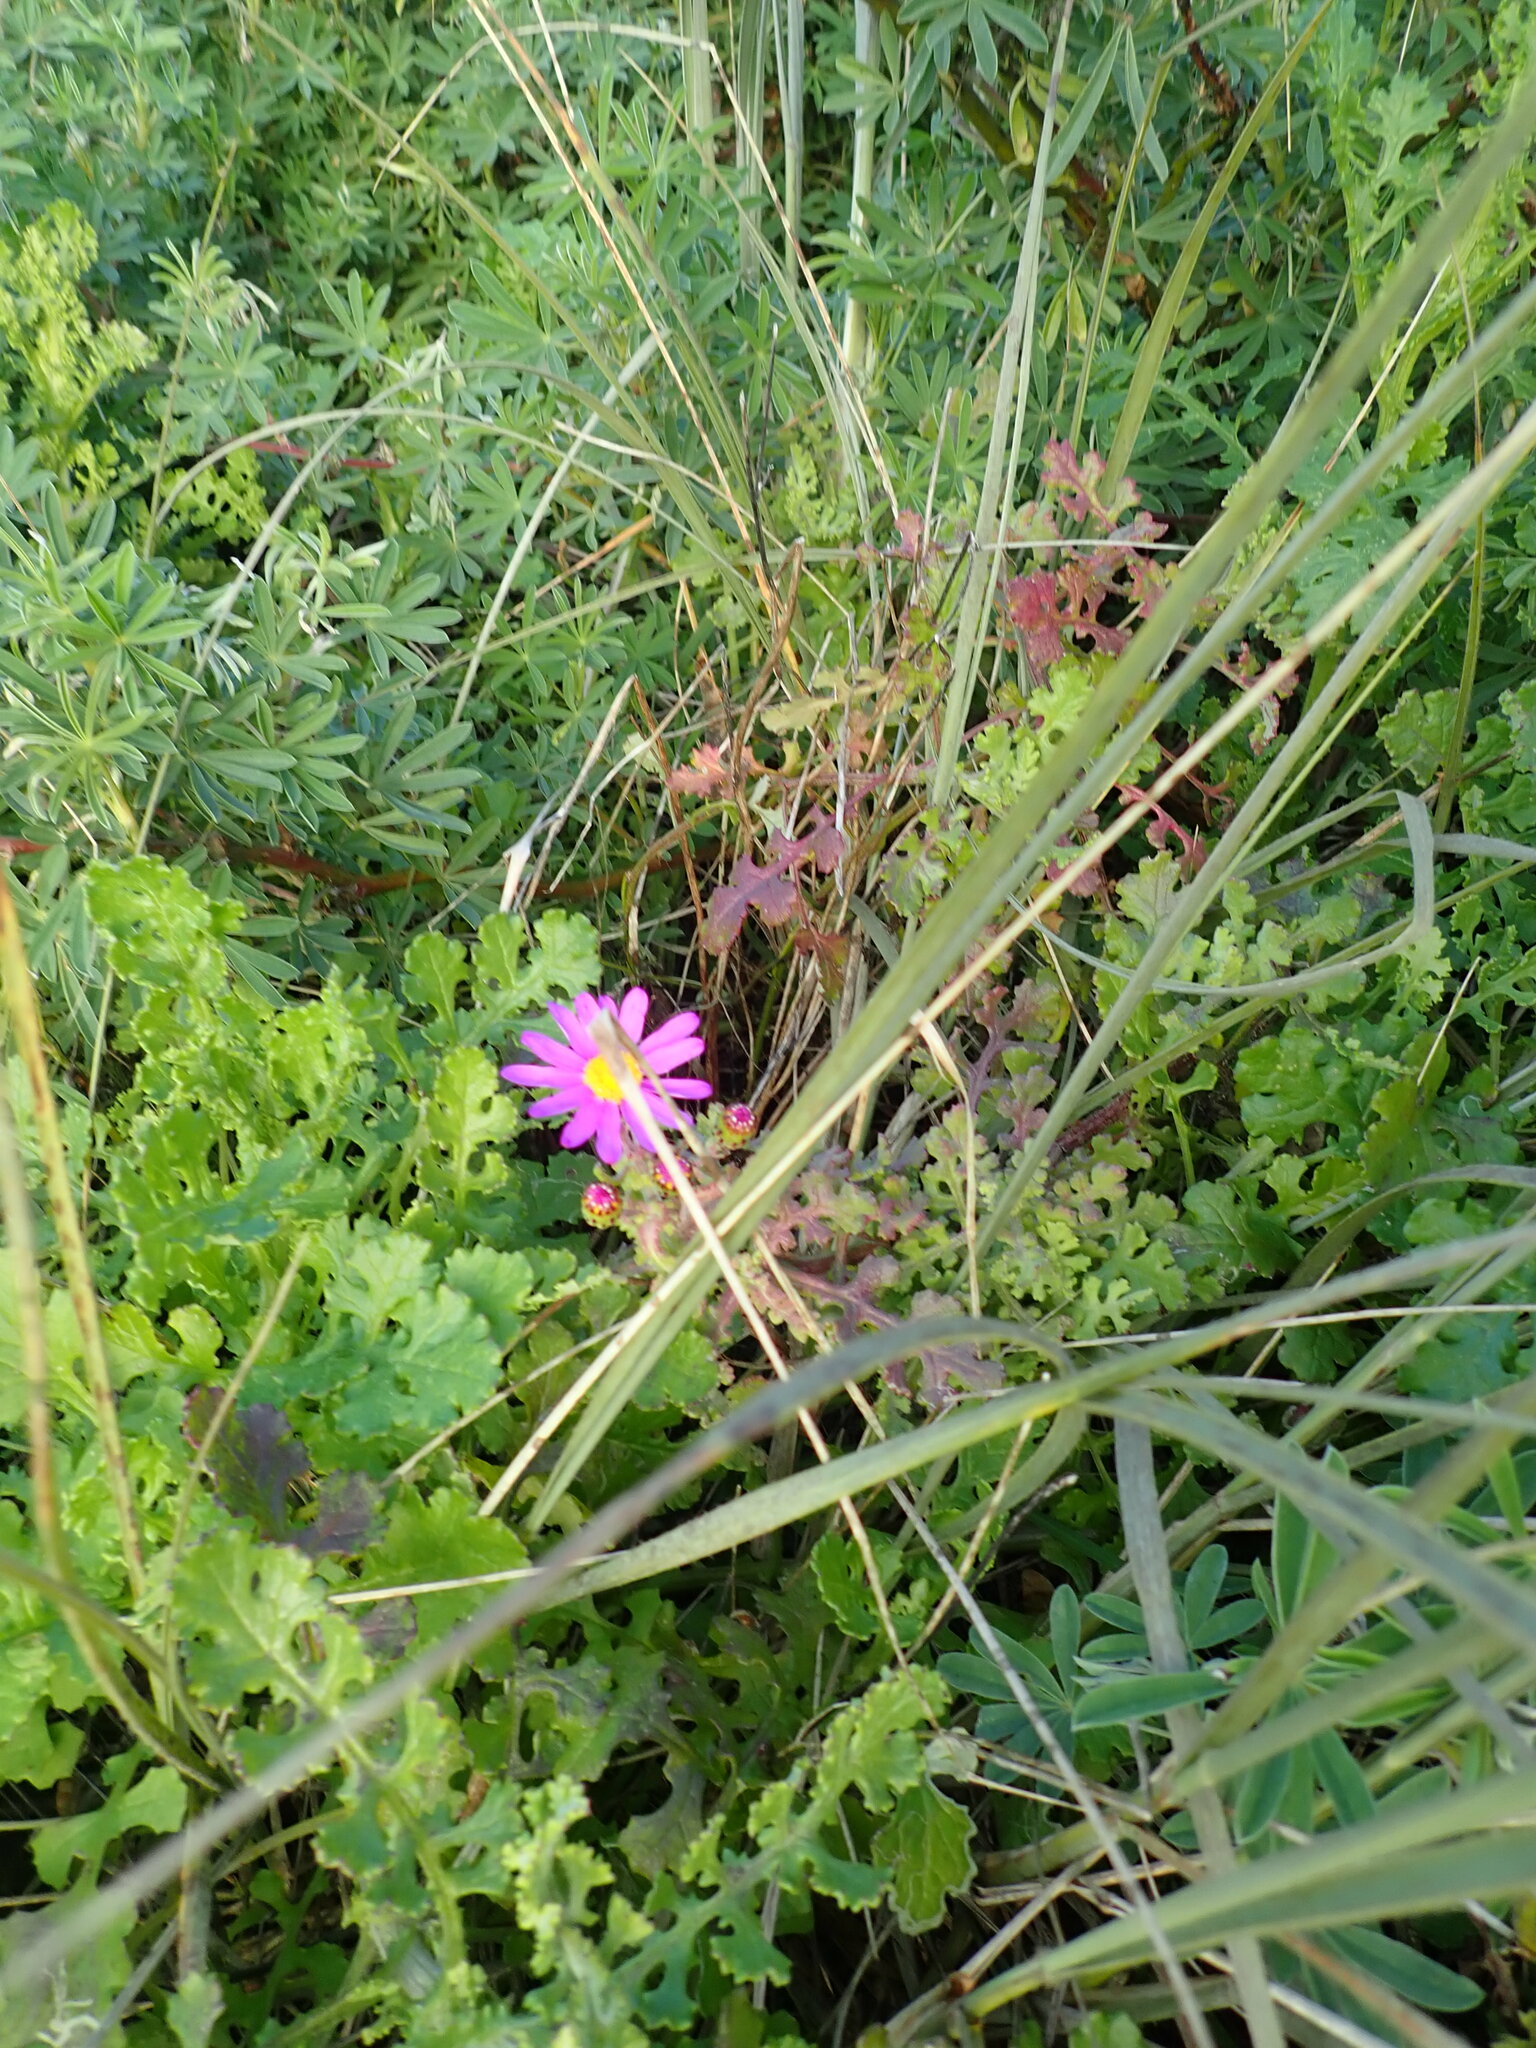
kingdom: Plantae
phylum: Tracheophyta
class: Magnoliopsida
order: Asterales
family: Asteraceae
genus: Senecio
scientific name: Senecio elegans
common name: Purple groundsel
